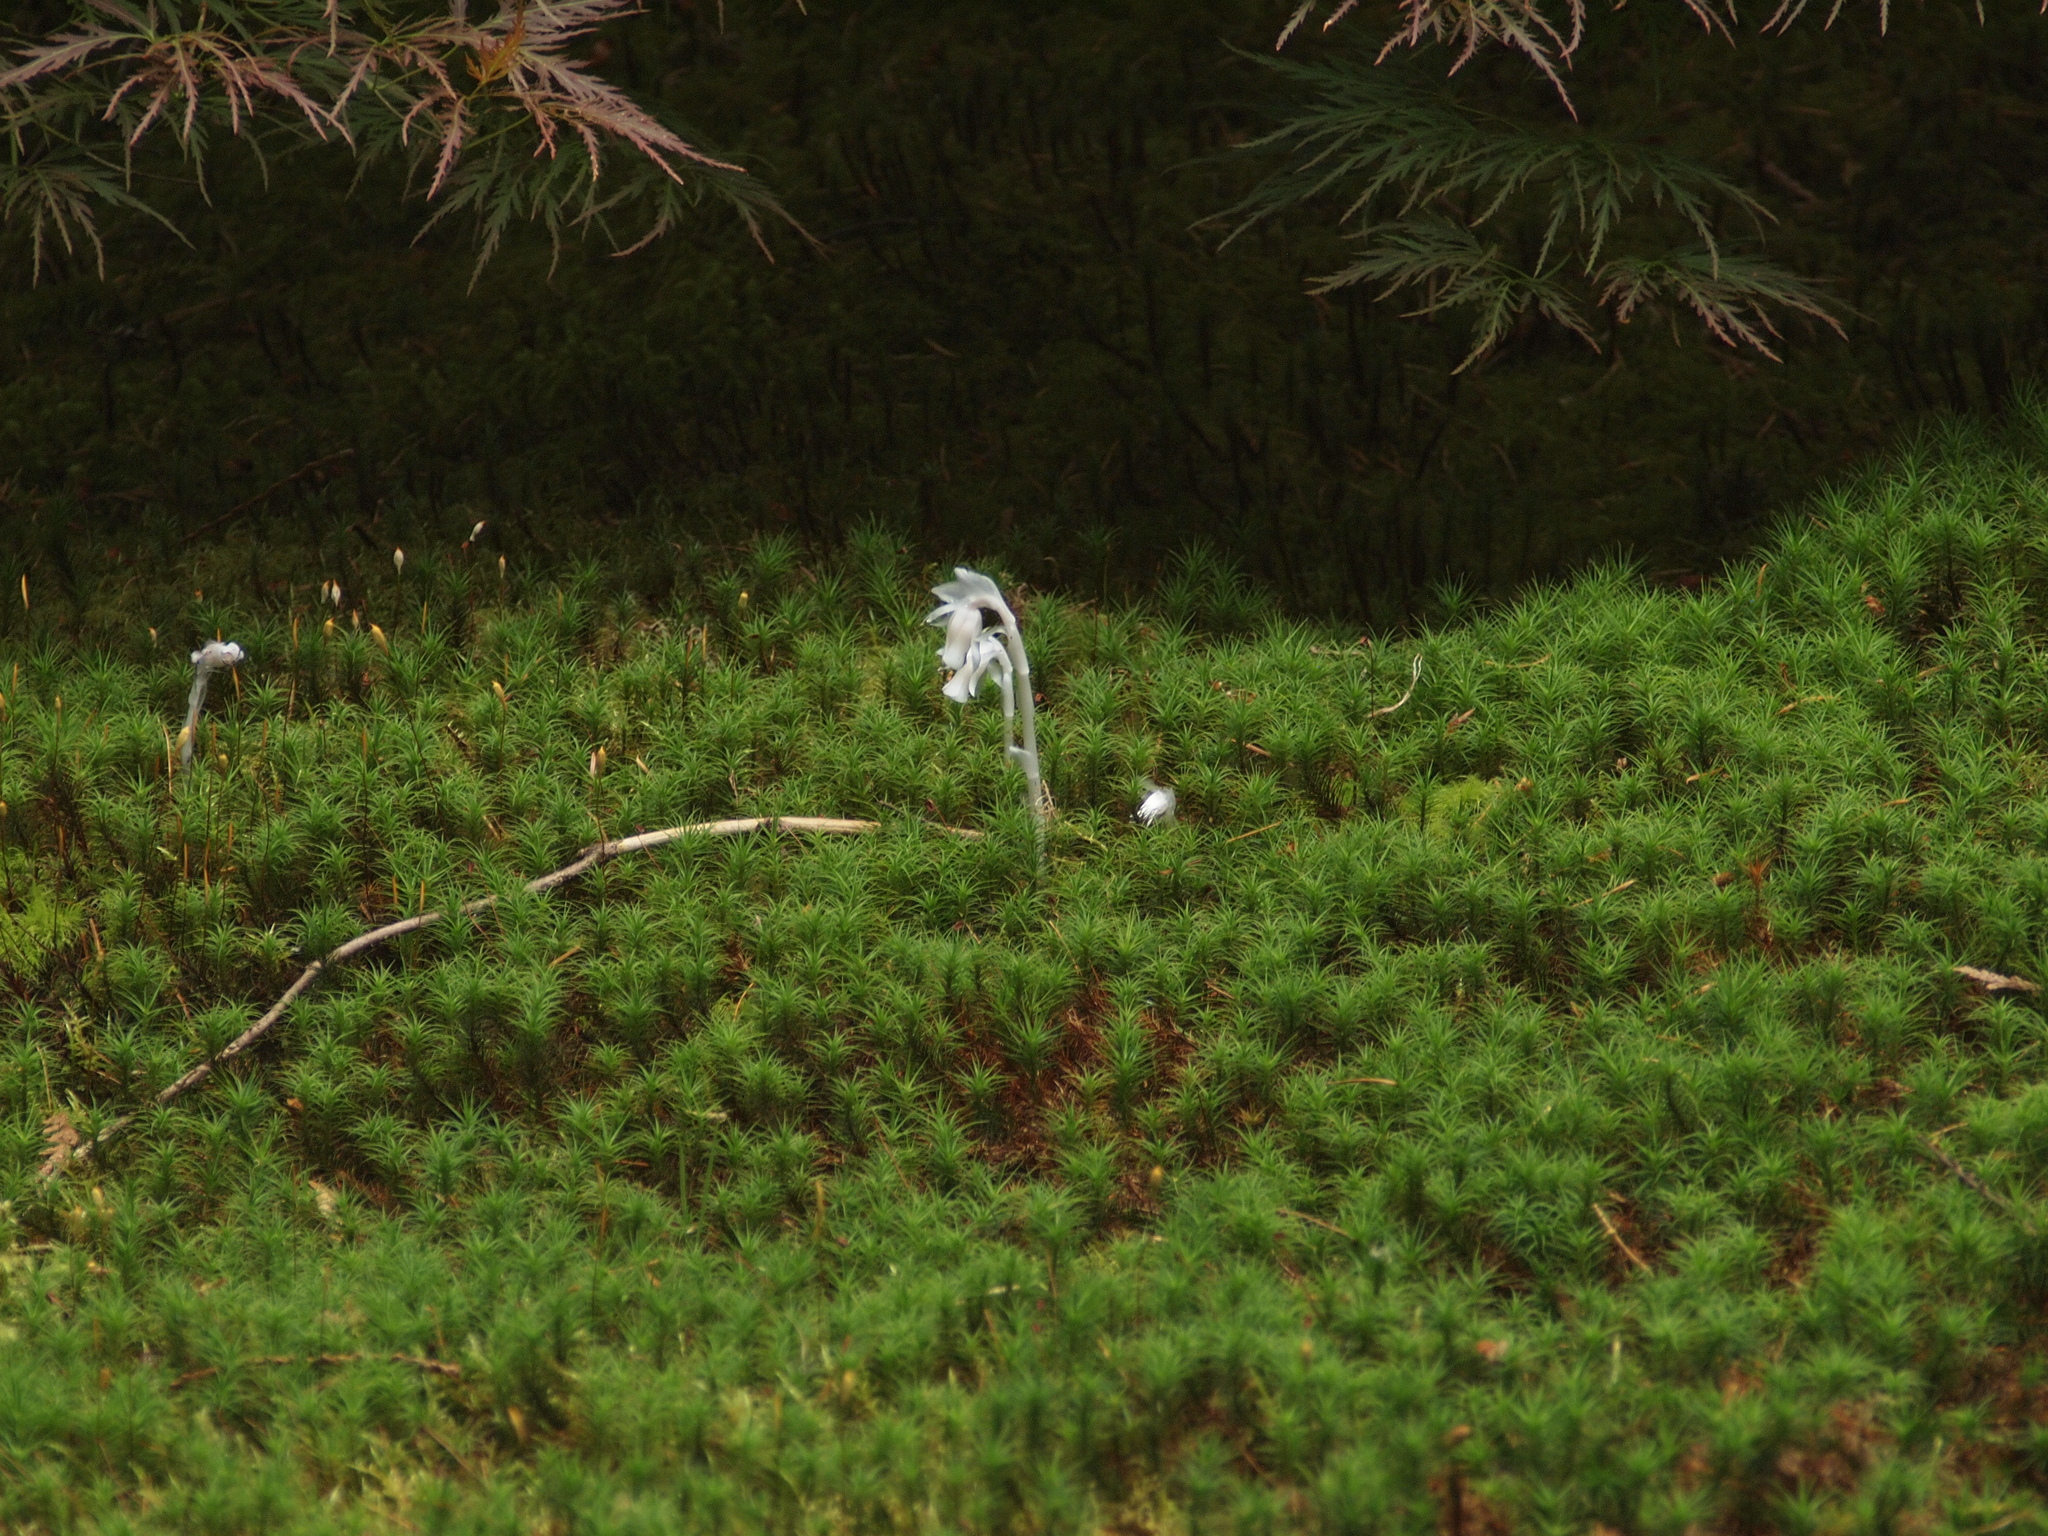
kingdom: Plantae
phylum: Tracheophyta
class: Magnoliopsida
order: Ericales
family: Ericaceae
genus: Monotropa
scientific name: Monotropa uniflora
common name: Convulsion root
